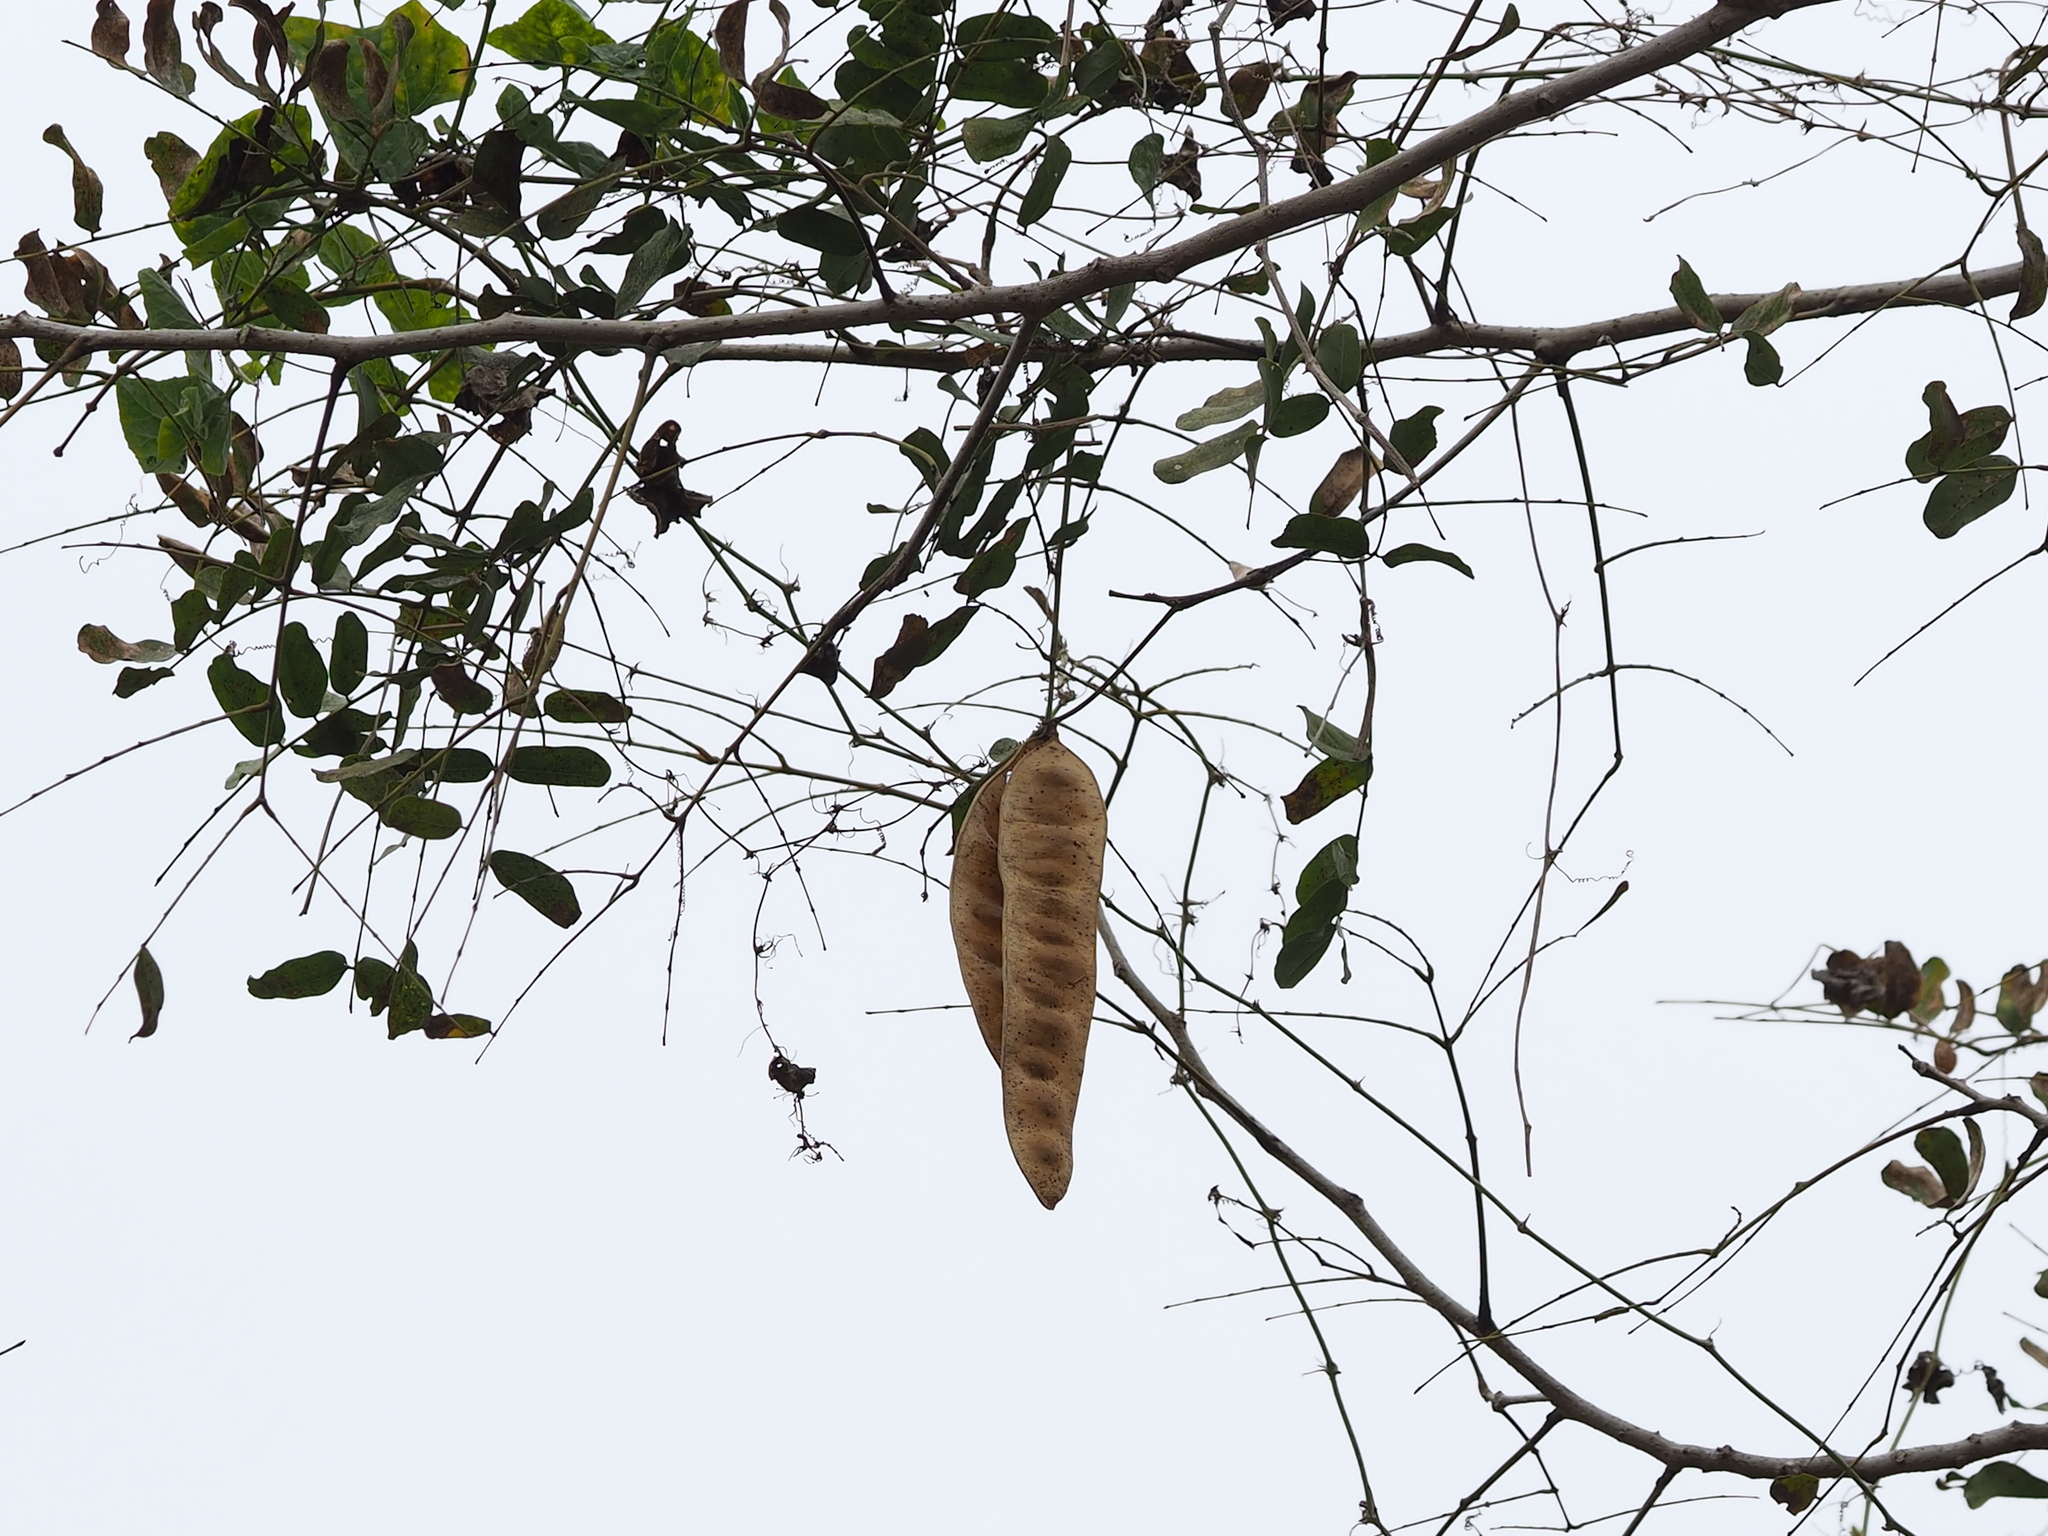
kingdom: Plantae
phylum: Tracheophyta
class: Magnoliopsida
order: Fabales
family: Fabaceae
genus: Albizia
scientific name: Albizia lebbeck
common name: Woman's tongue
